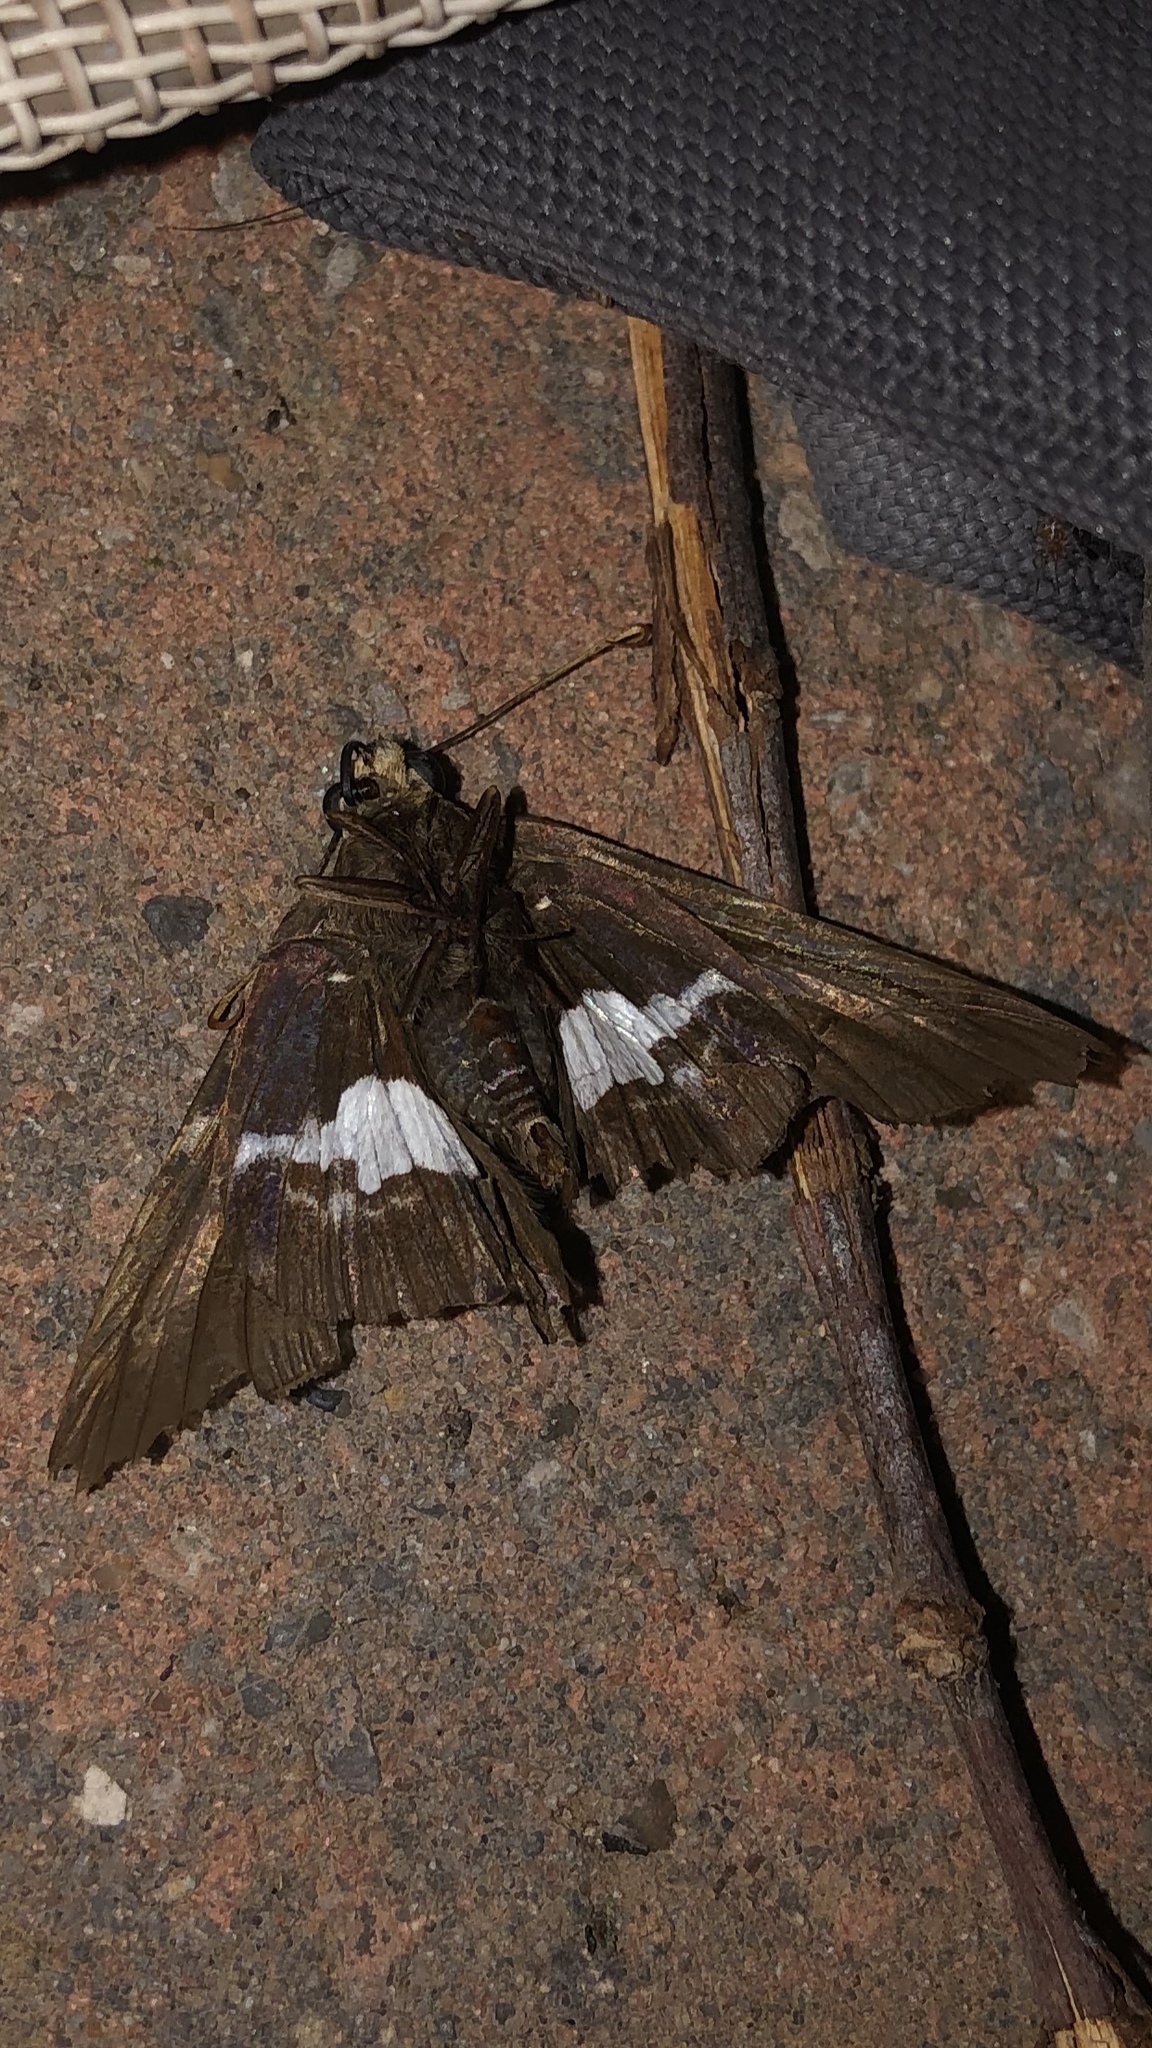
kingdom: Animalia
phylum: Arthropoda
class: Insecta
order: Lepidoptera
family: Hesperiidae
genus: Epargyreus
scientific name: Epargyreus clarus
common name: Silver-spotted skipper
